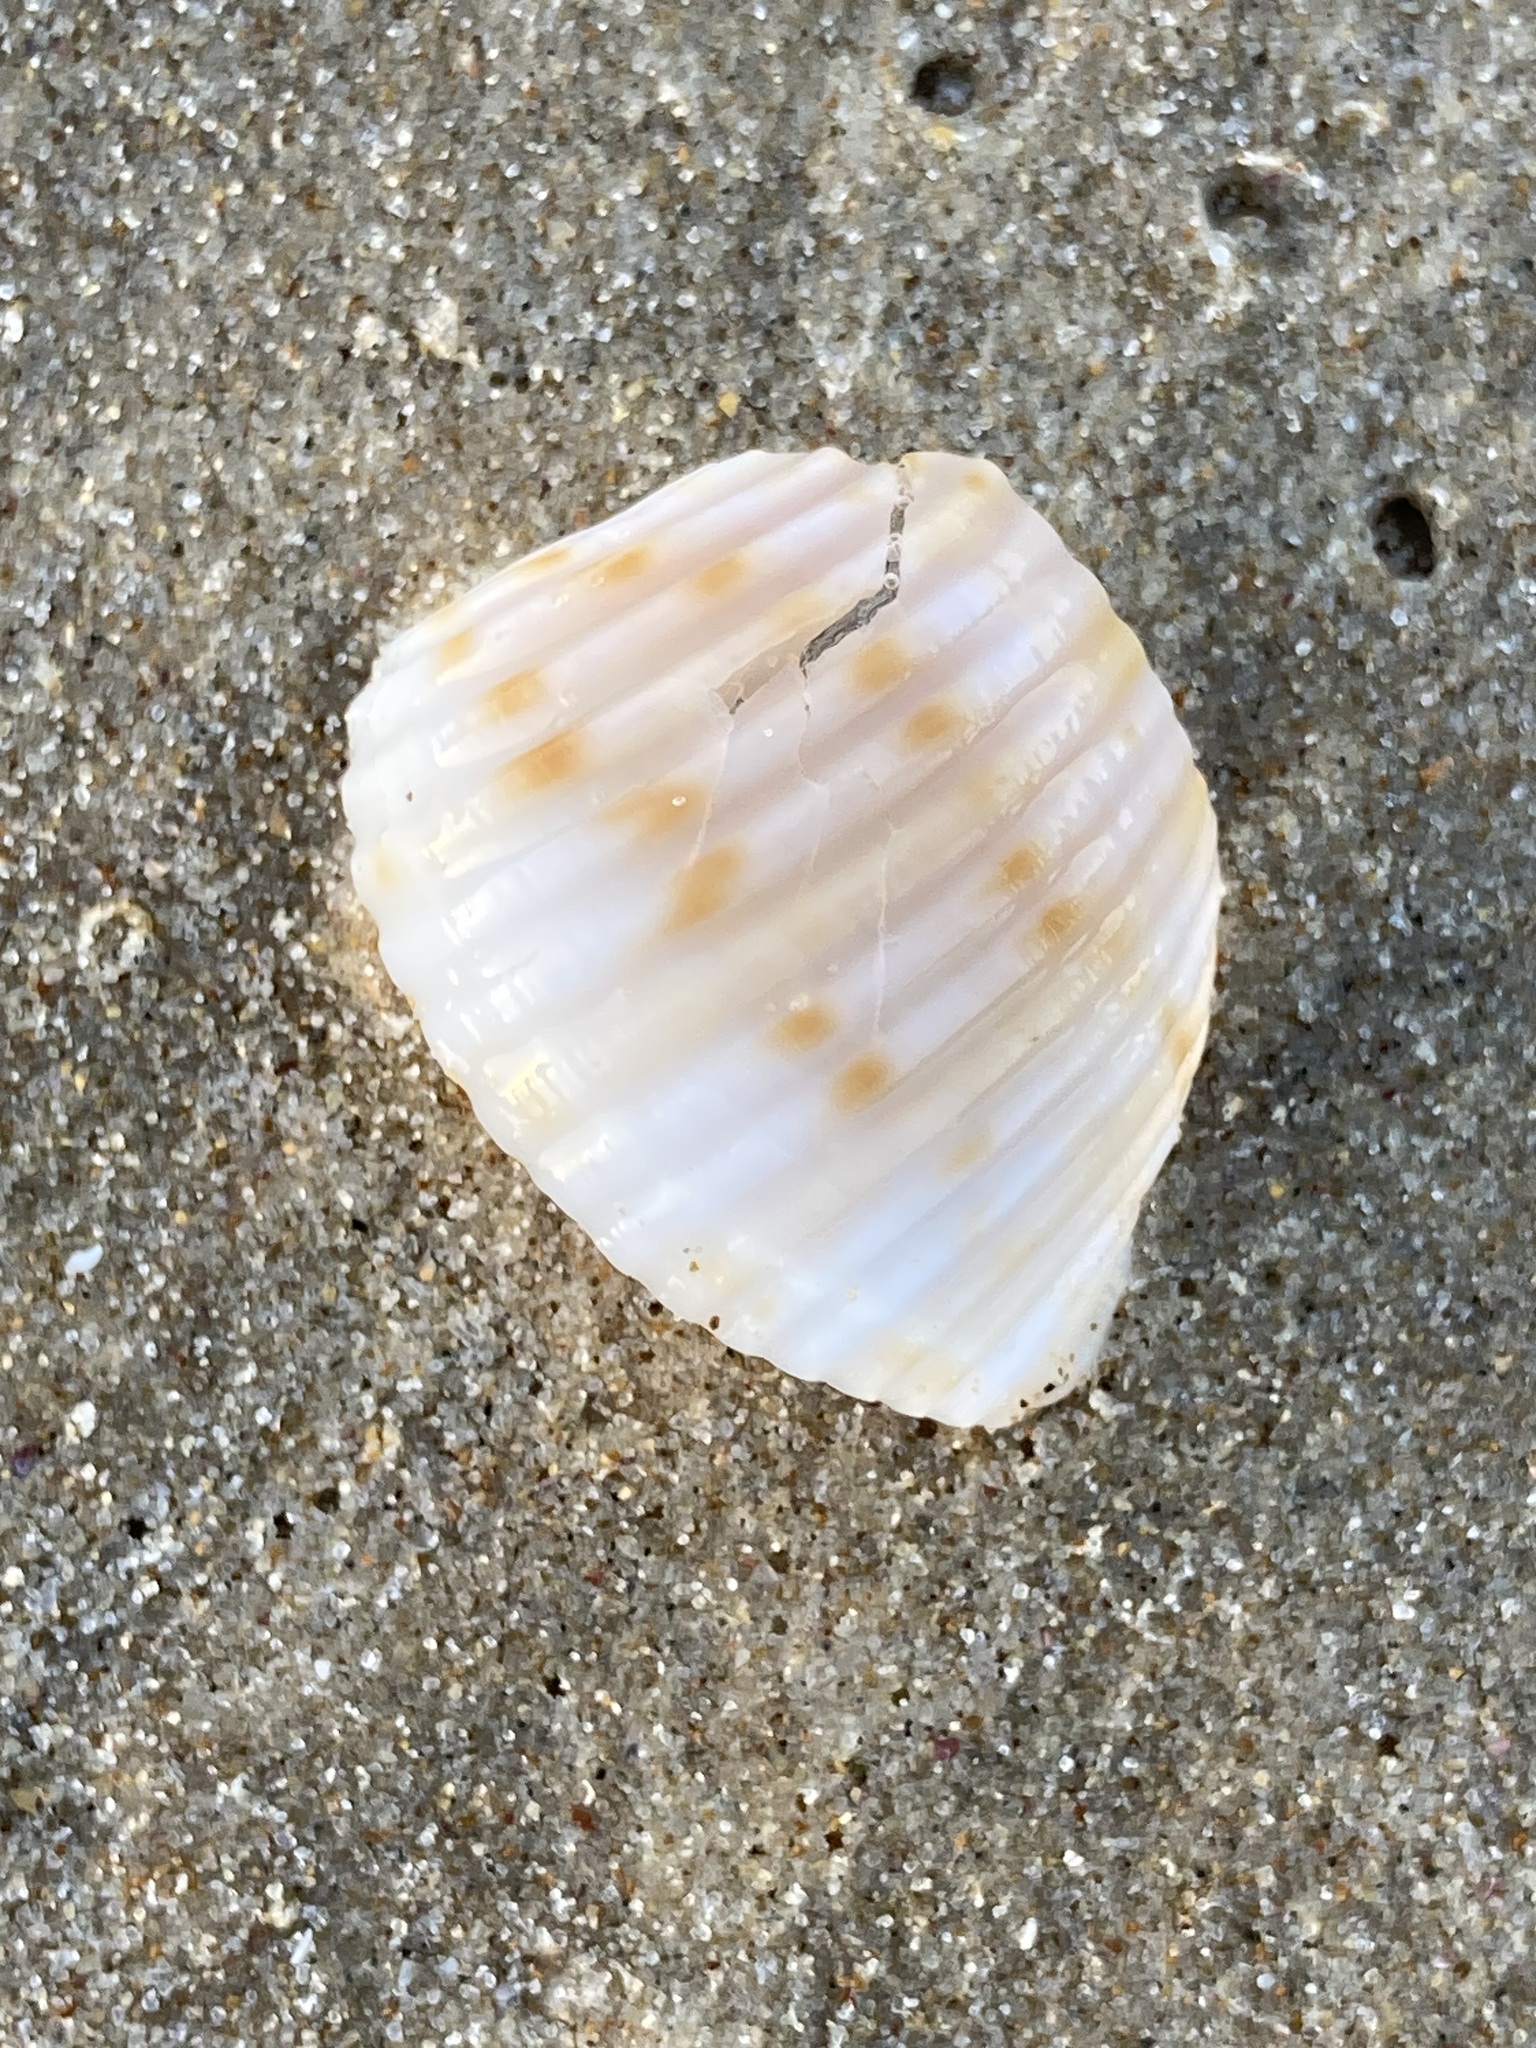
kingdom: Animalia
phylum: Mollusca
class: Gastropoda
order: Littorinimorpha
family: Tonnidae
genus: Tonna
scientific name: Tonna tankervillii
